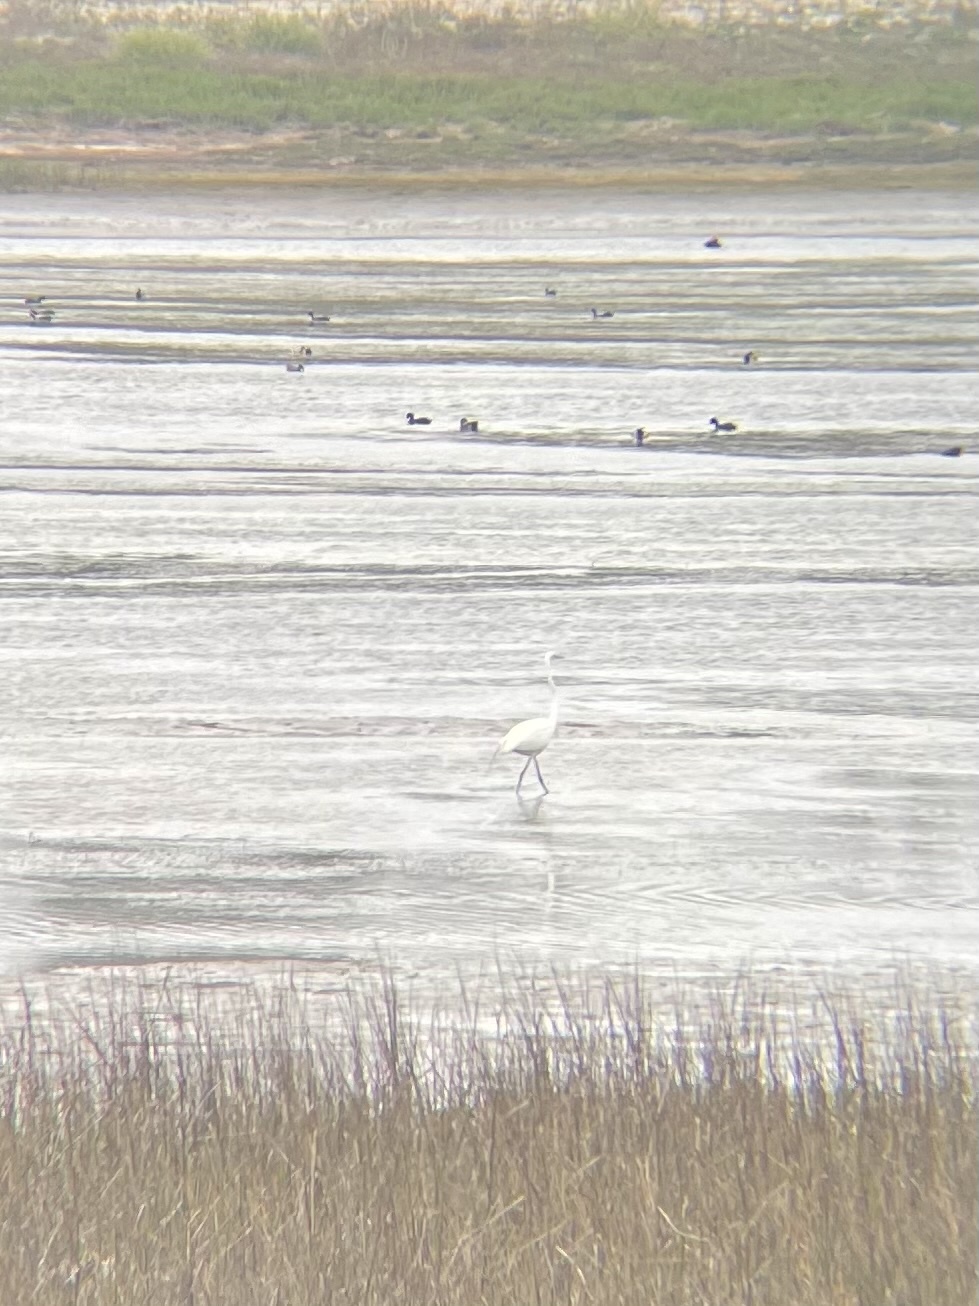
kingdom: Animalia
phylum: Chordata
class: Aves
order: Pelecaniformes
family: Ardeidae
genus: Ardea
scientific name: Ardea alba
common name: Great egret
